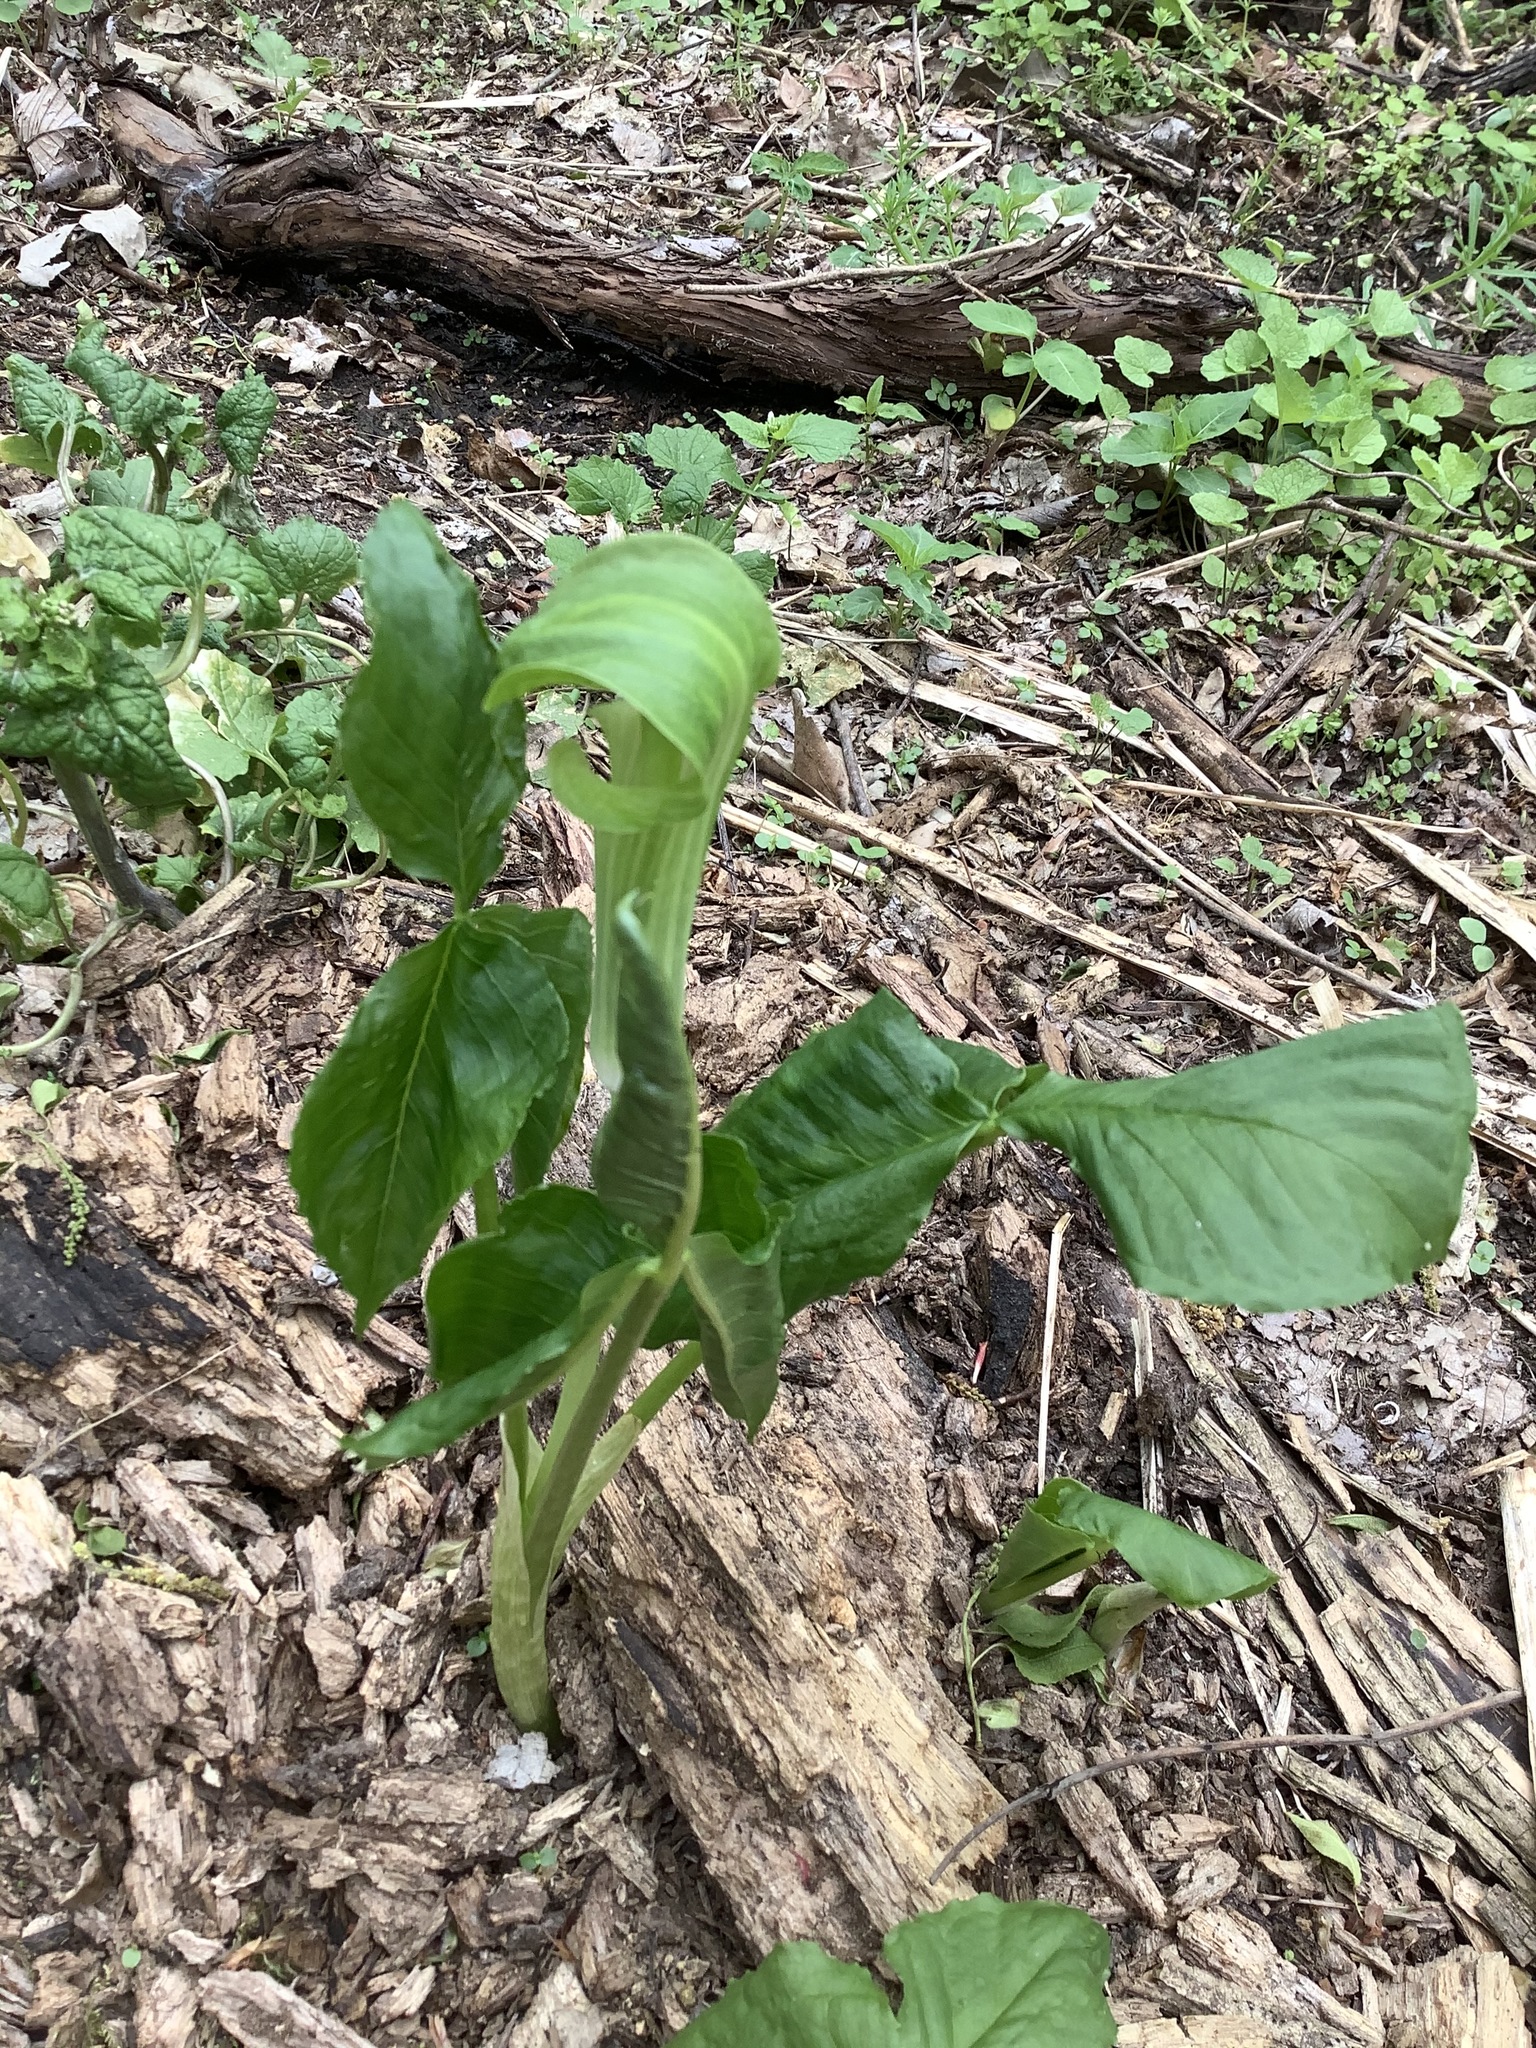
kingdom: Plantae
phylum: Tracheophyta
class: Liliopsida
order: Alismatales
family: Araceae
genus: Arisaema
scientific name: Arisaema triphyllum
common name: Jack-in-the-pulpit
